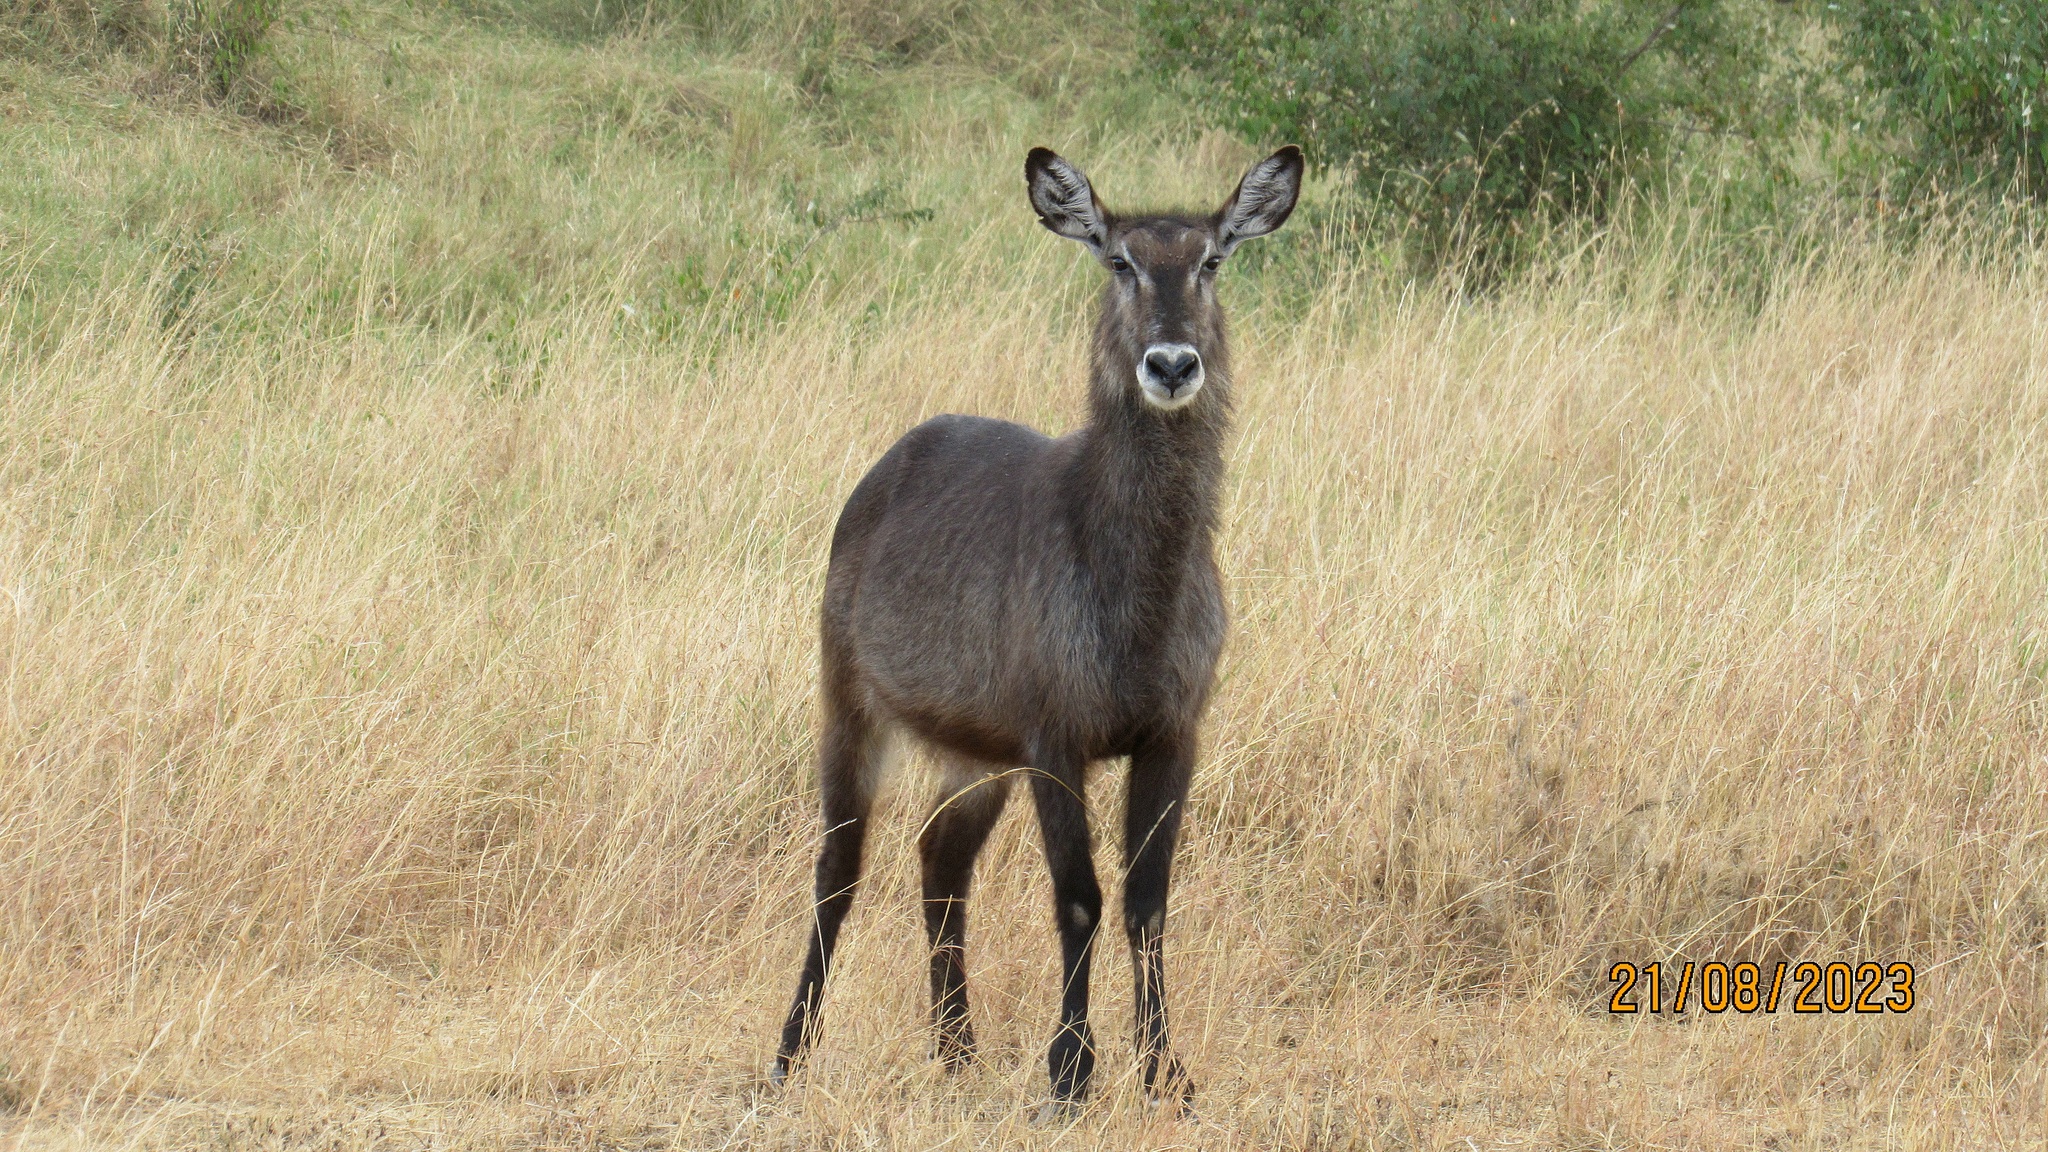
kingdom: Animalia
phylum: Chordata
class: Mammalia
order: Artiodactyla
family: Bovidae
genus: Kobus
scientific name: Kobus ellipsiprymnus
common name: Waterbuck
